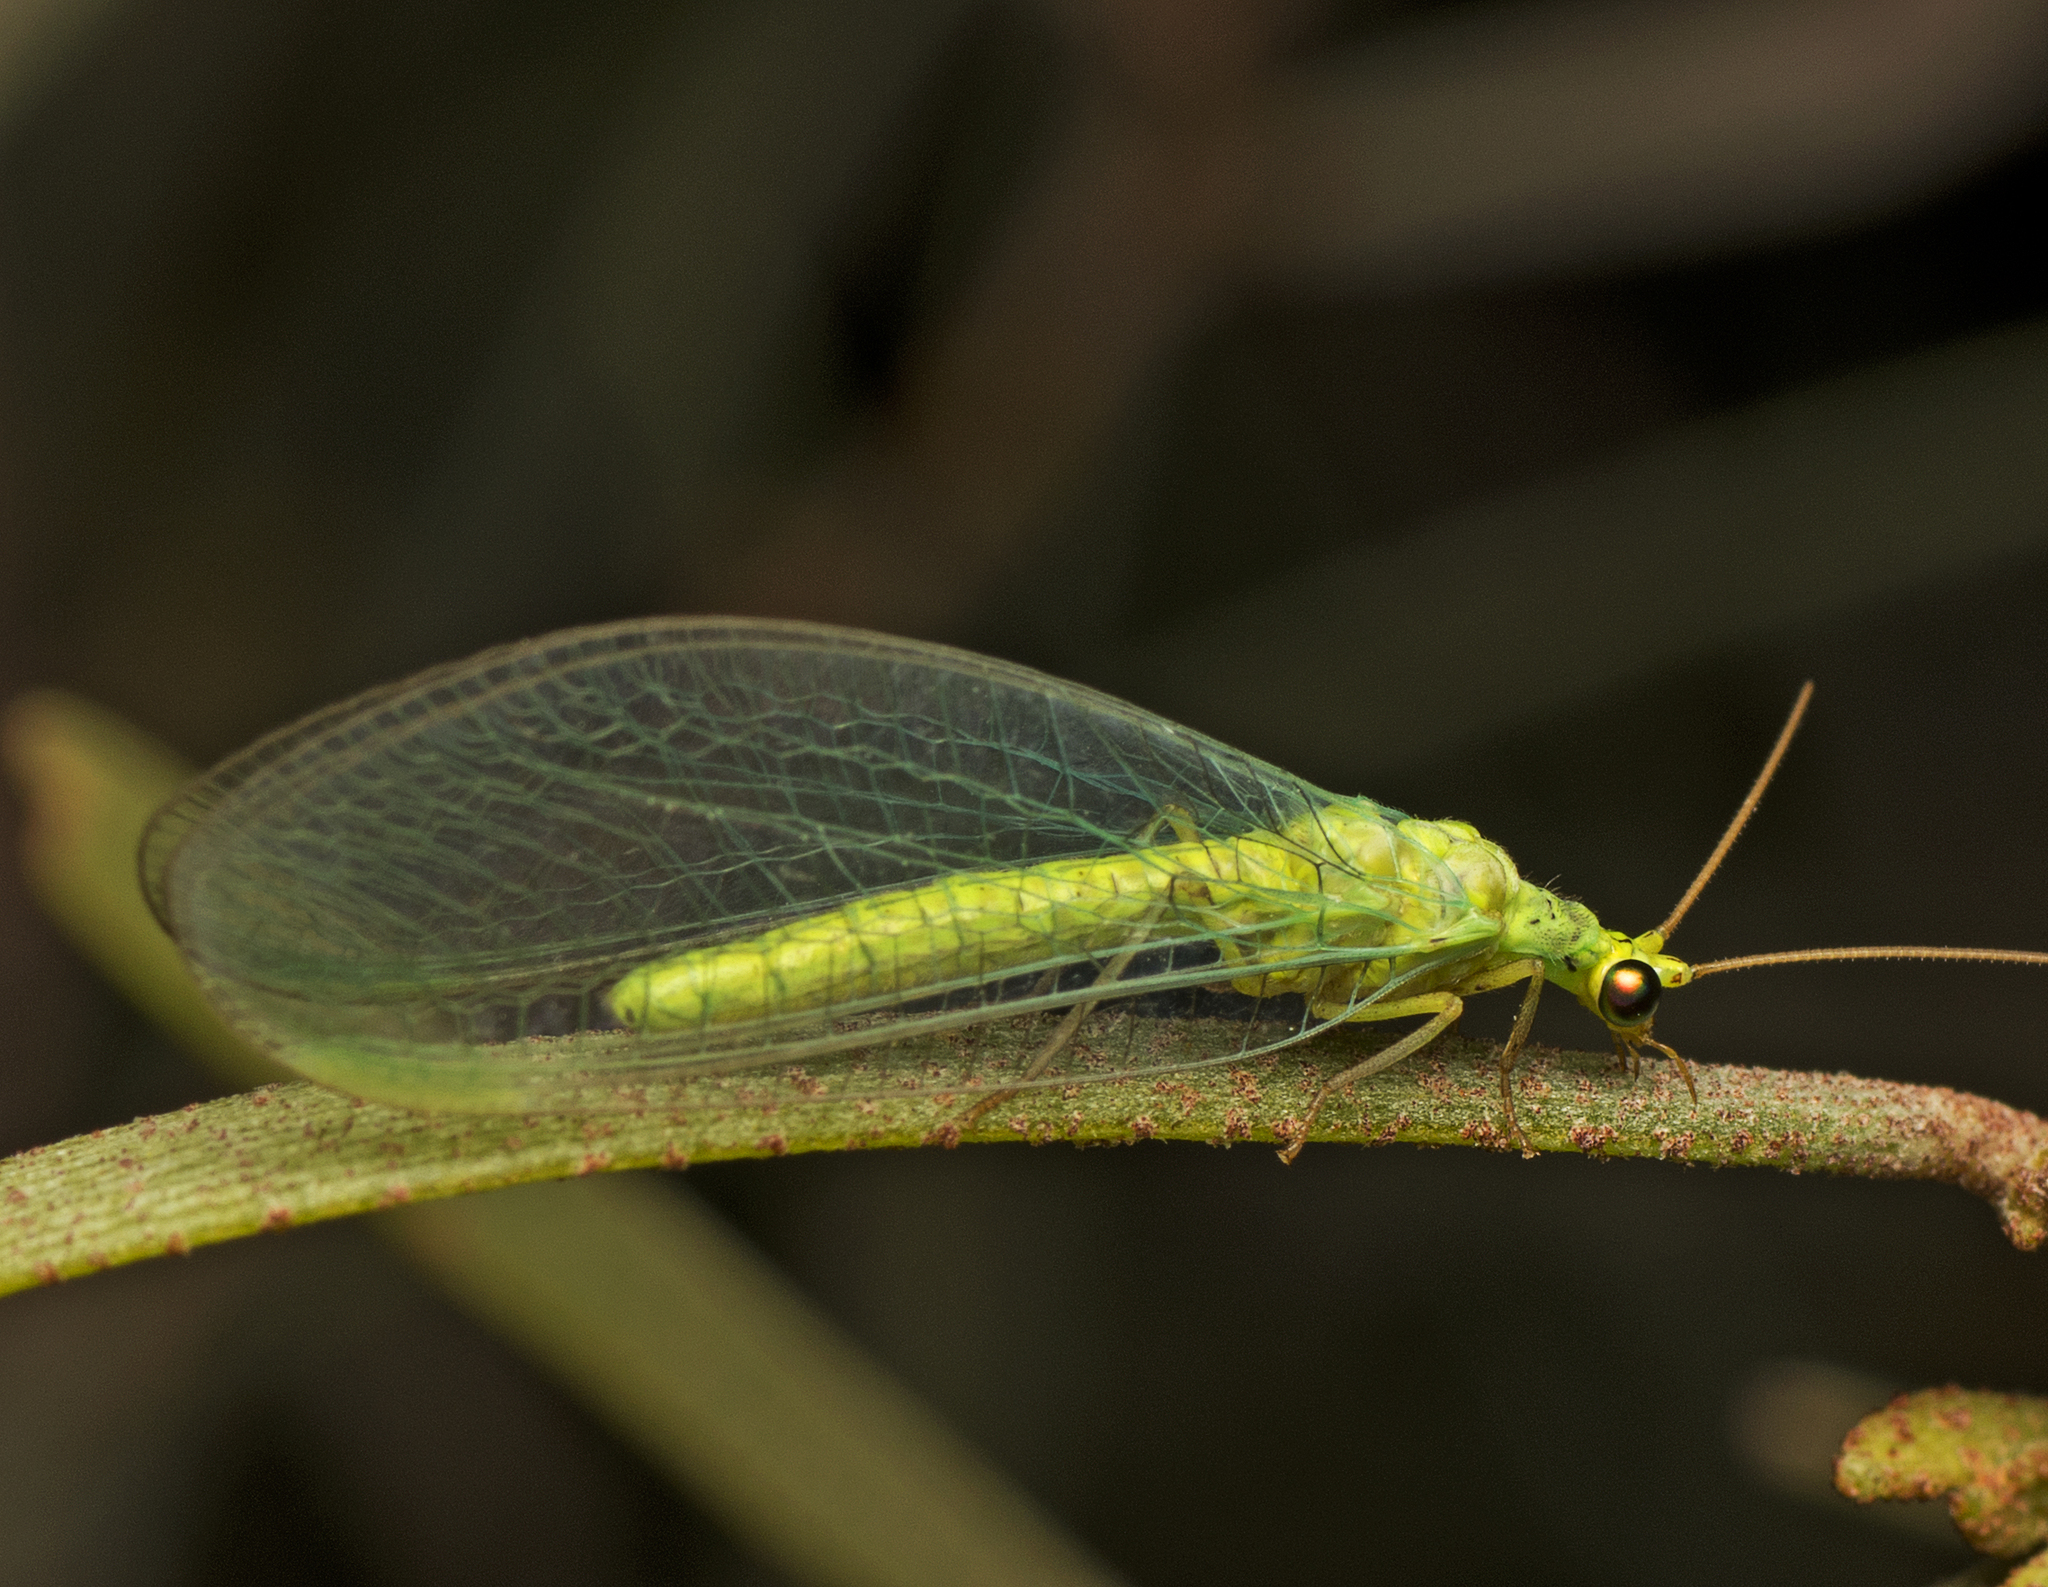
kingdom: Animalia
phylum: Arthropoda
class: Insecta
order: Neuroptera
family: Chrysopidae
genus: Plesiochrysa
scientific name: Plesiochrysa ramburi
